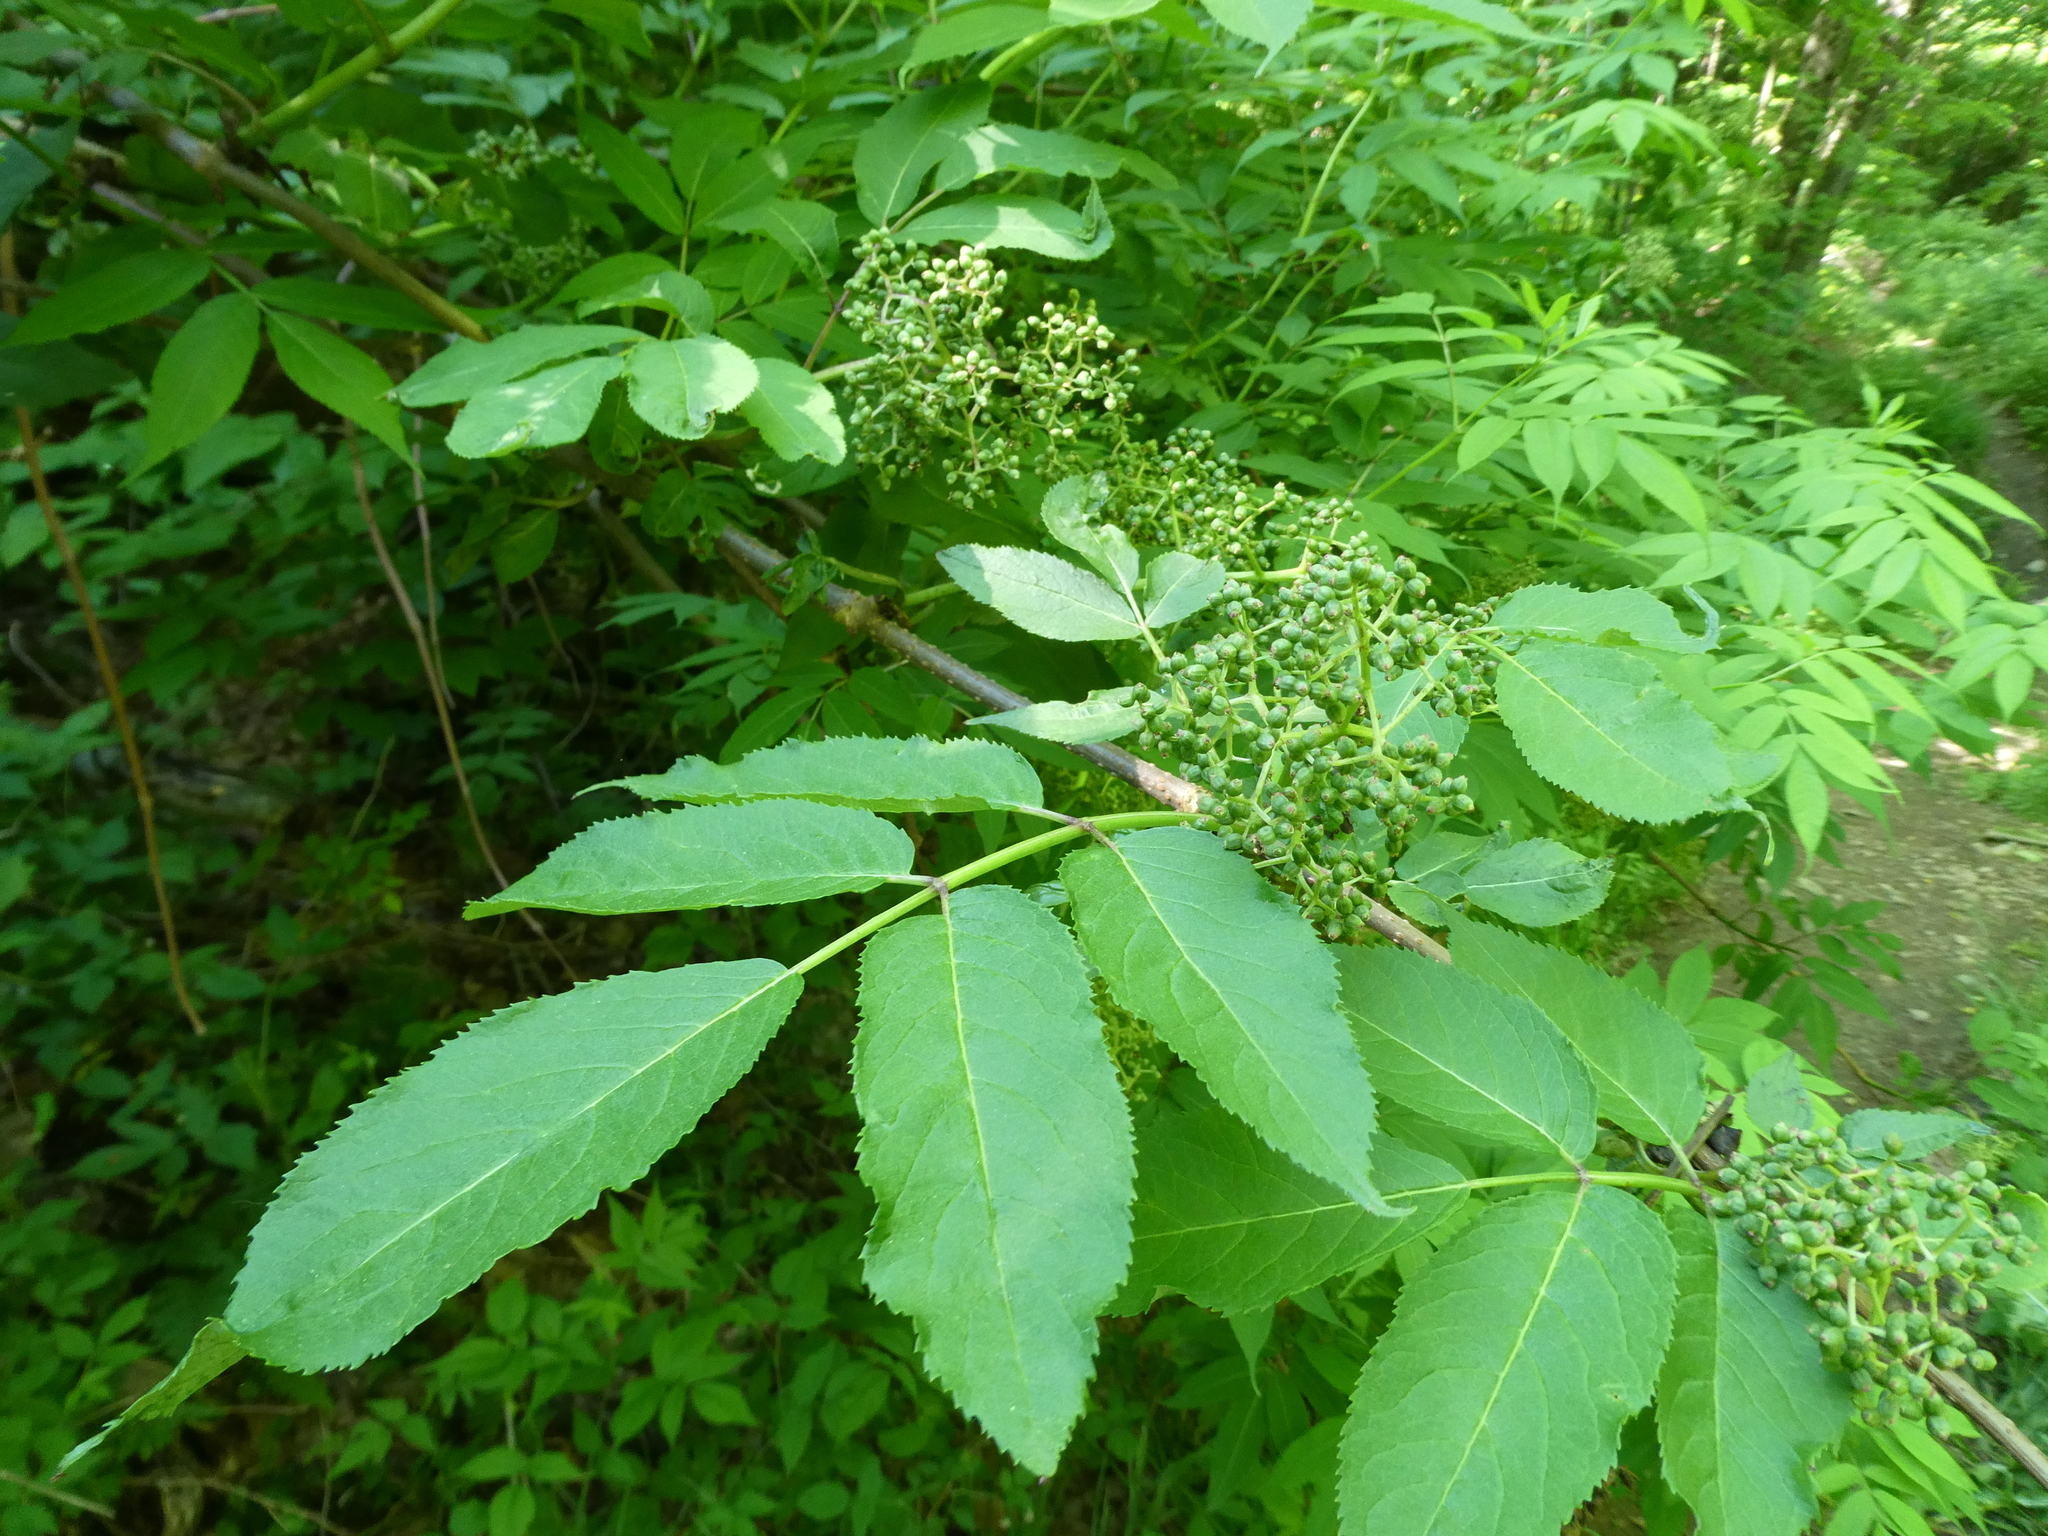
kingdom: Plantae
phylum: Tracheophyta
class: Magnoliopsida
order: Dipsacales
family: Viburnaceae
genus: Sambucus
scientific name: Sambucus racemosa
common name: Red-berried elder
